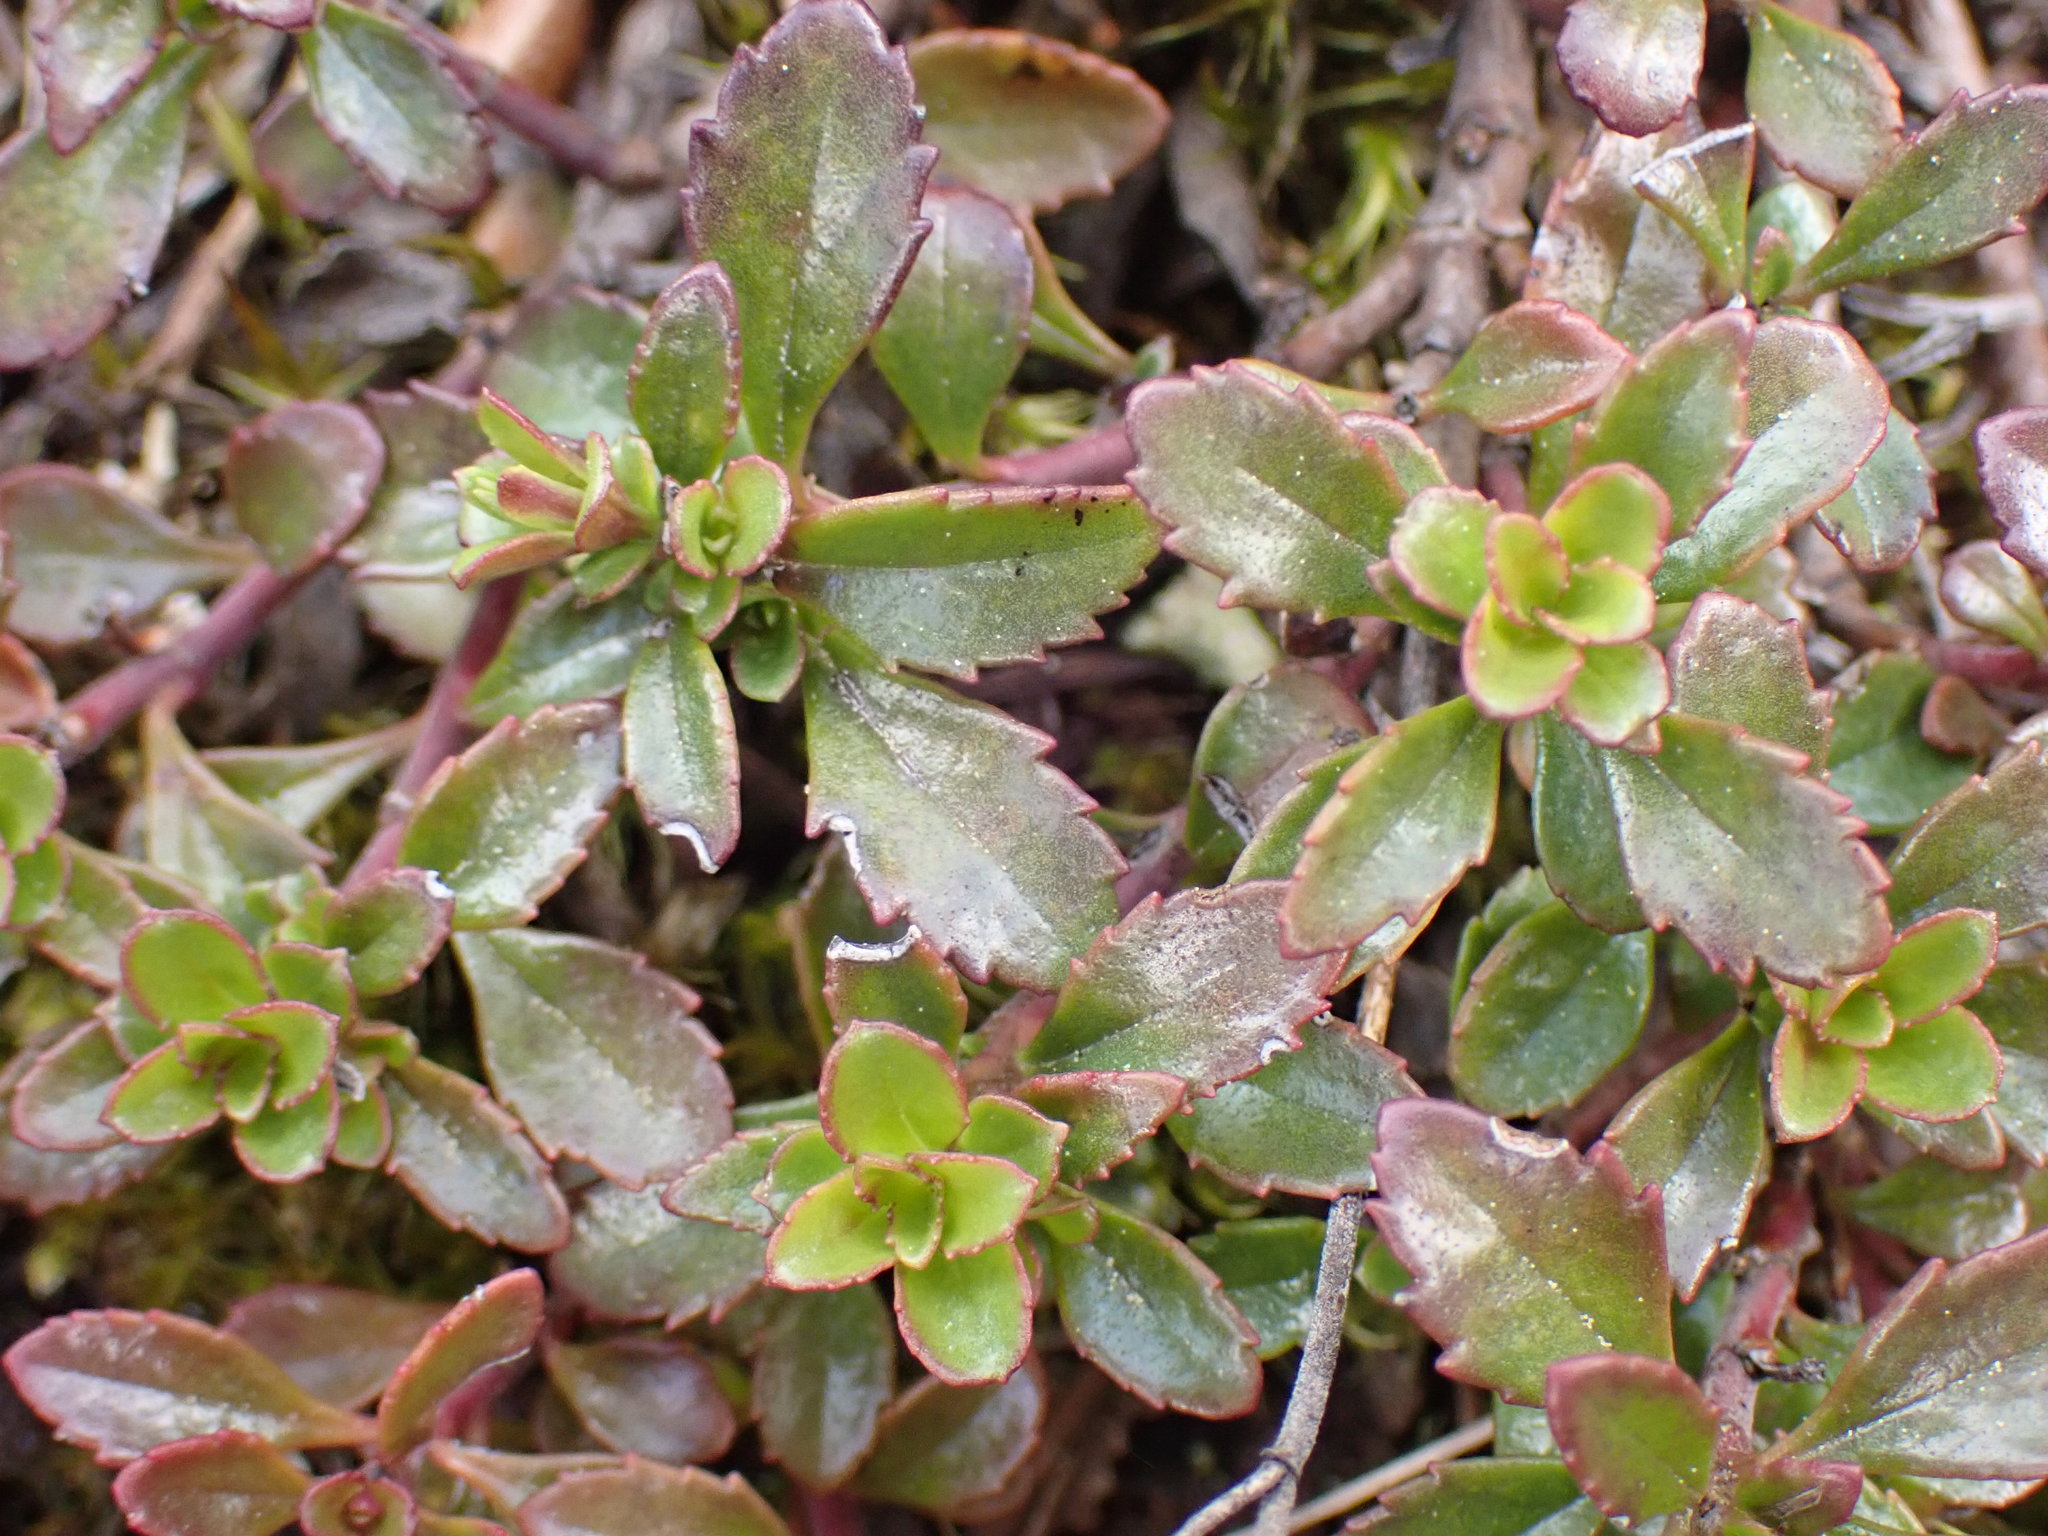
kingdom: Plantae
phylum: Tracheophyta
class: Magnoliopsida
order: Lamiales
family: Plantaginaceae
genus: Penstemon
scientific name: Penstemon davidsonii
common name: Davidson's penstemon
